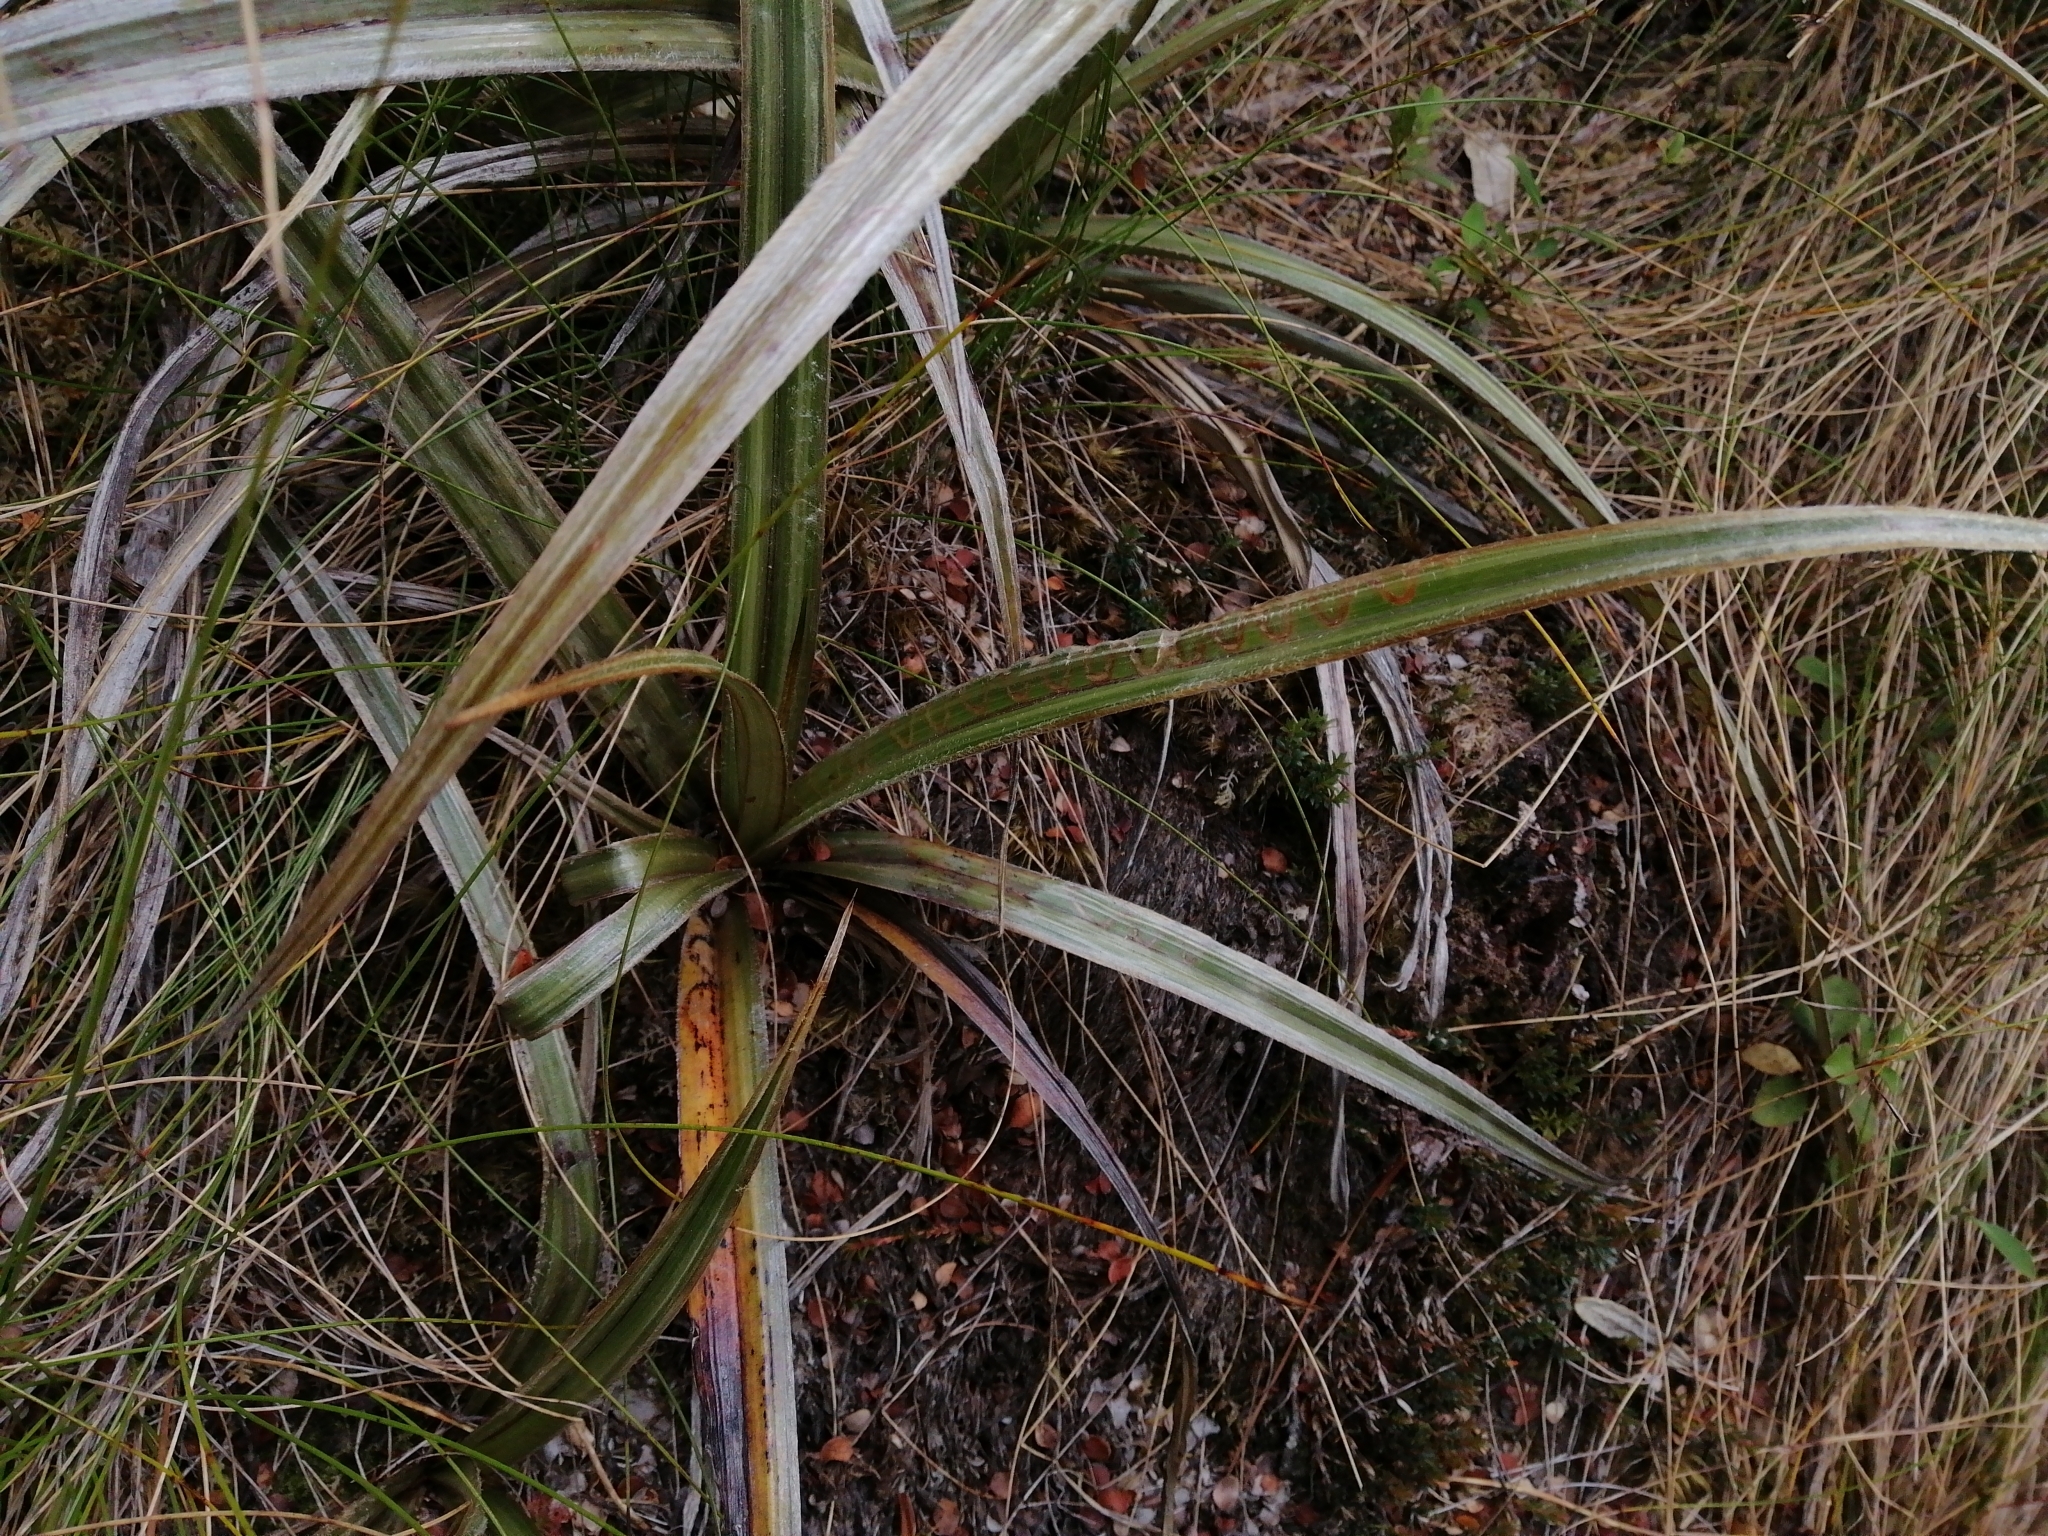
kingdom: Animalia
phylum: Arthropoda
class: Insecta
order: Lepidoptera
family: Plutellidae
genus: Charixena
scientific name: Charixena iridoxa
